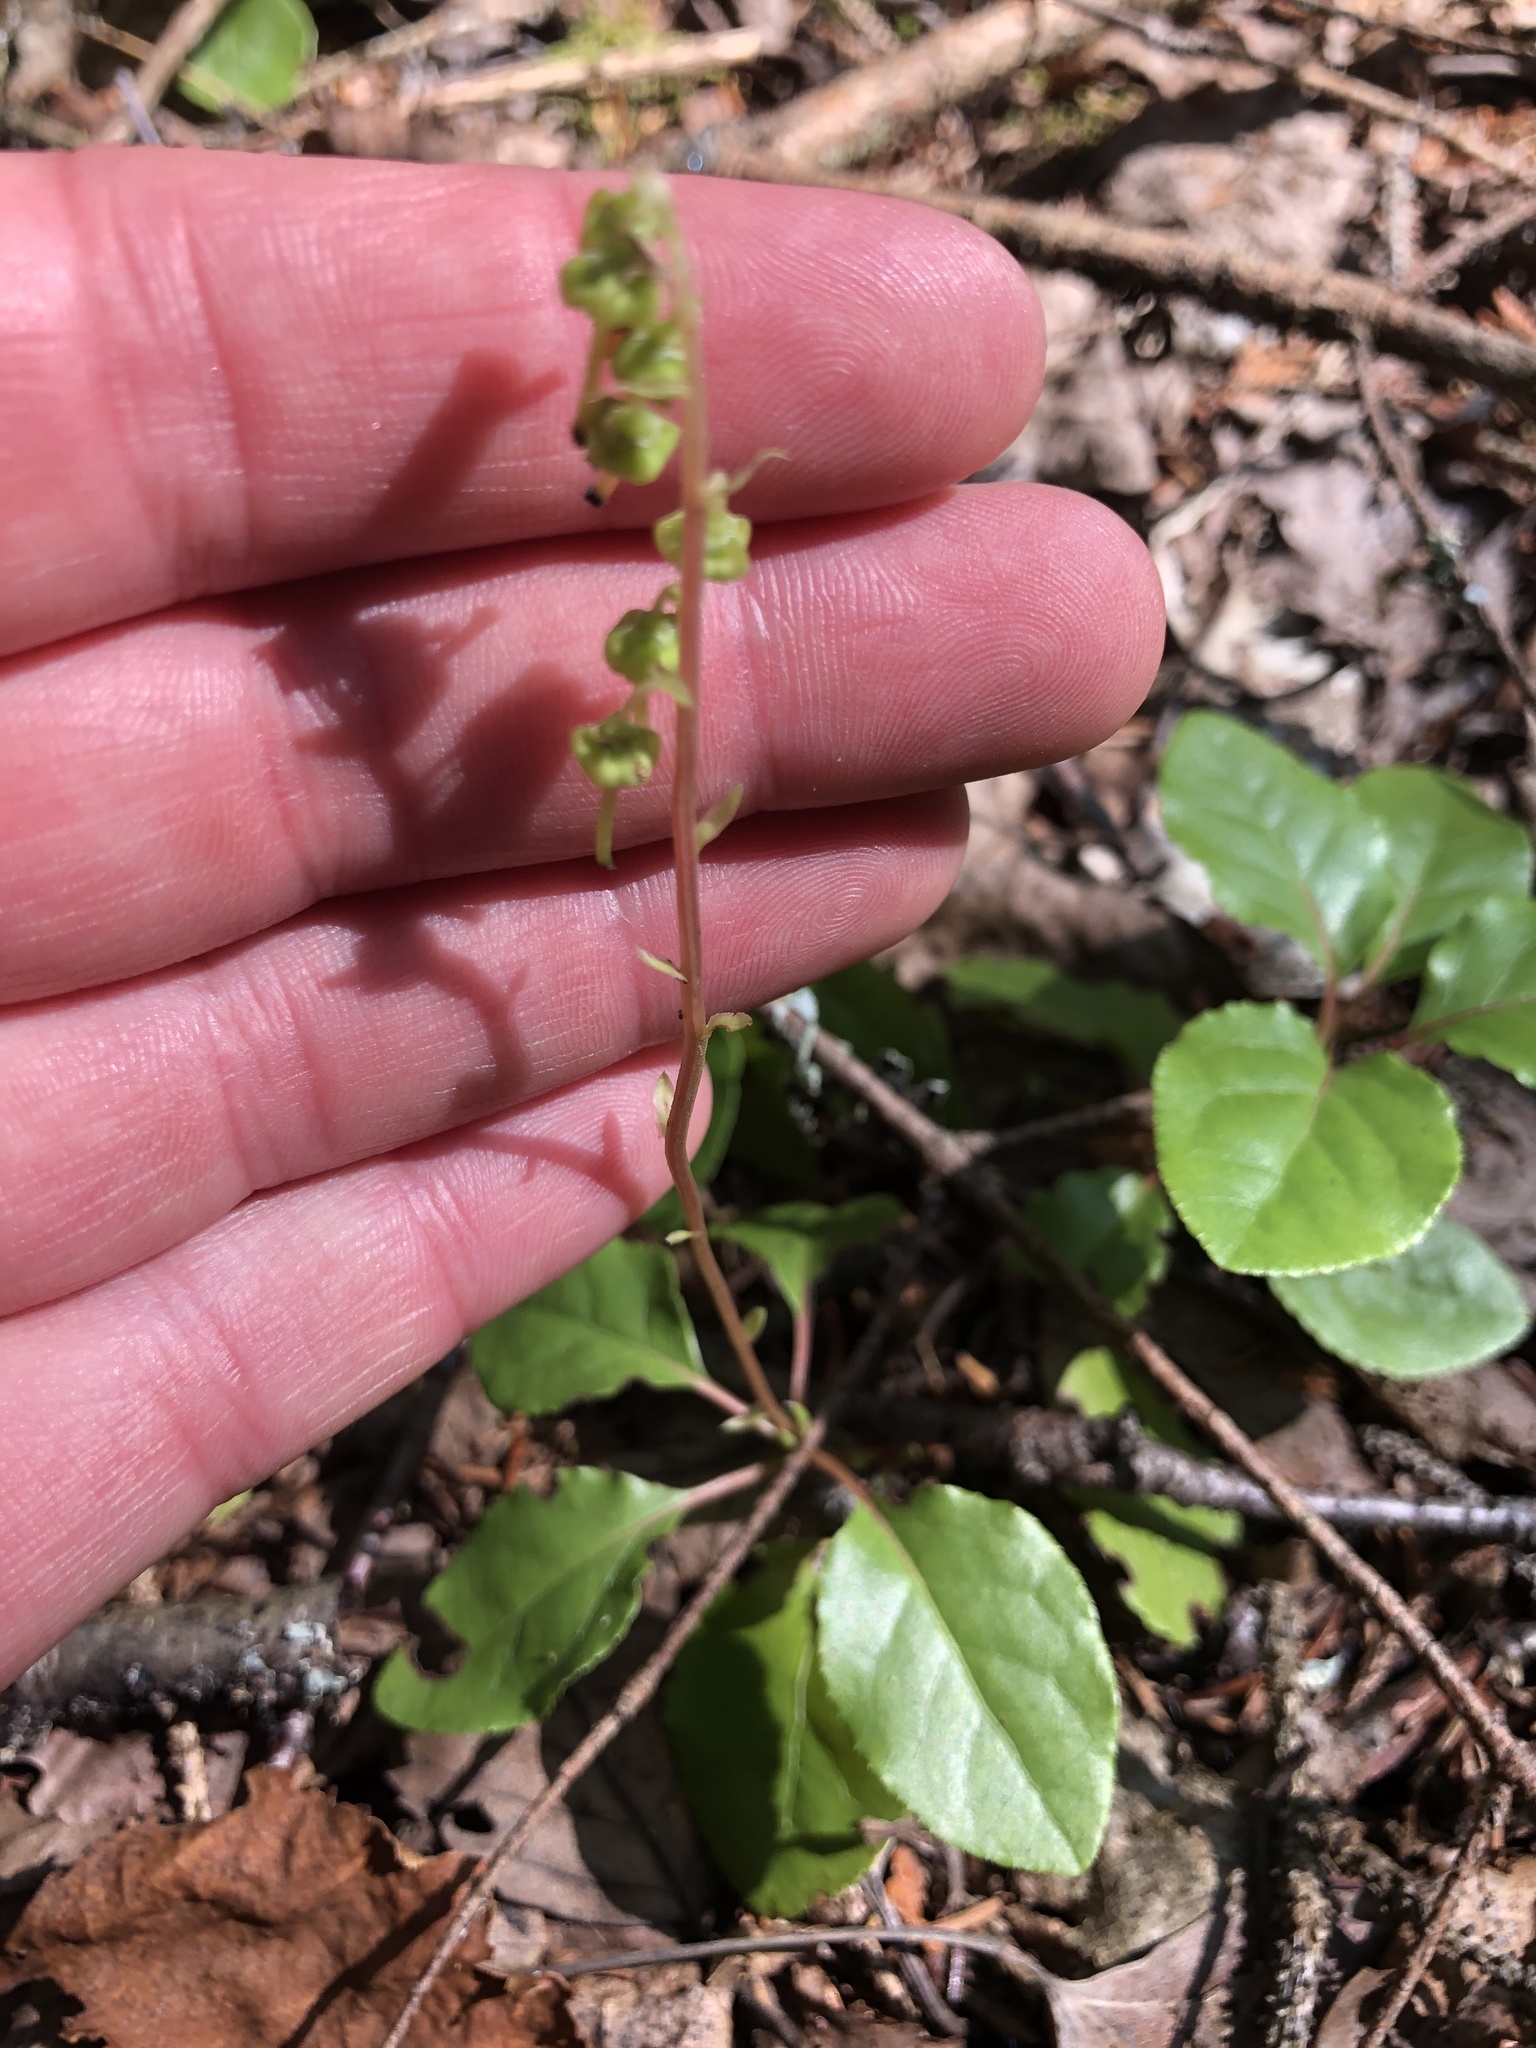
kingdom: Plantae
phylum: Tracheophyta
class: Magnoliopsida
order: Ericales
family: Ericaceae
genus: Orthilia
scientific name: Orthilia secunda
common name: One-sided orthilia
